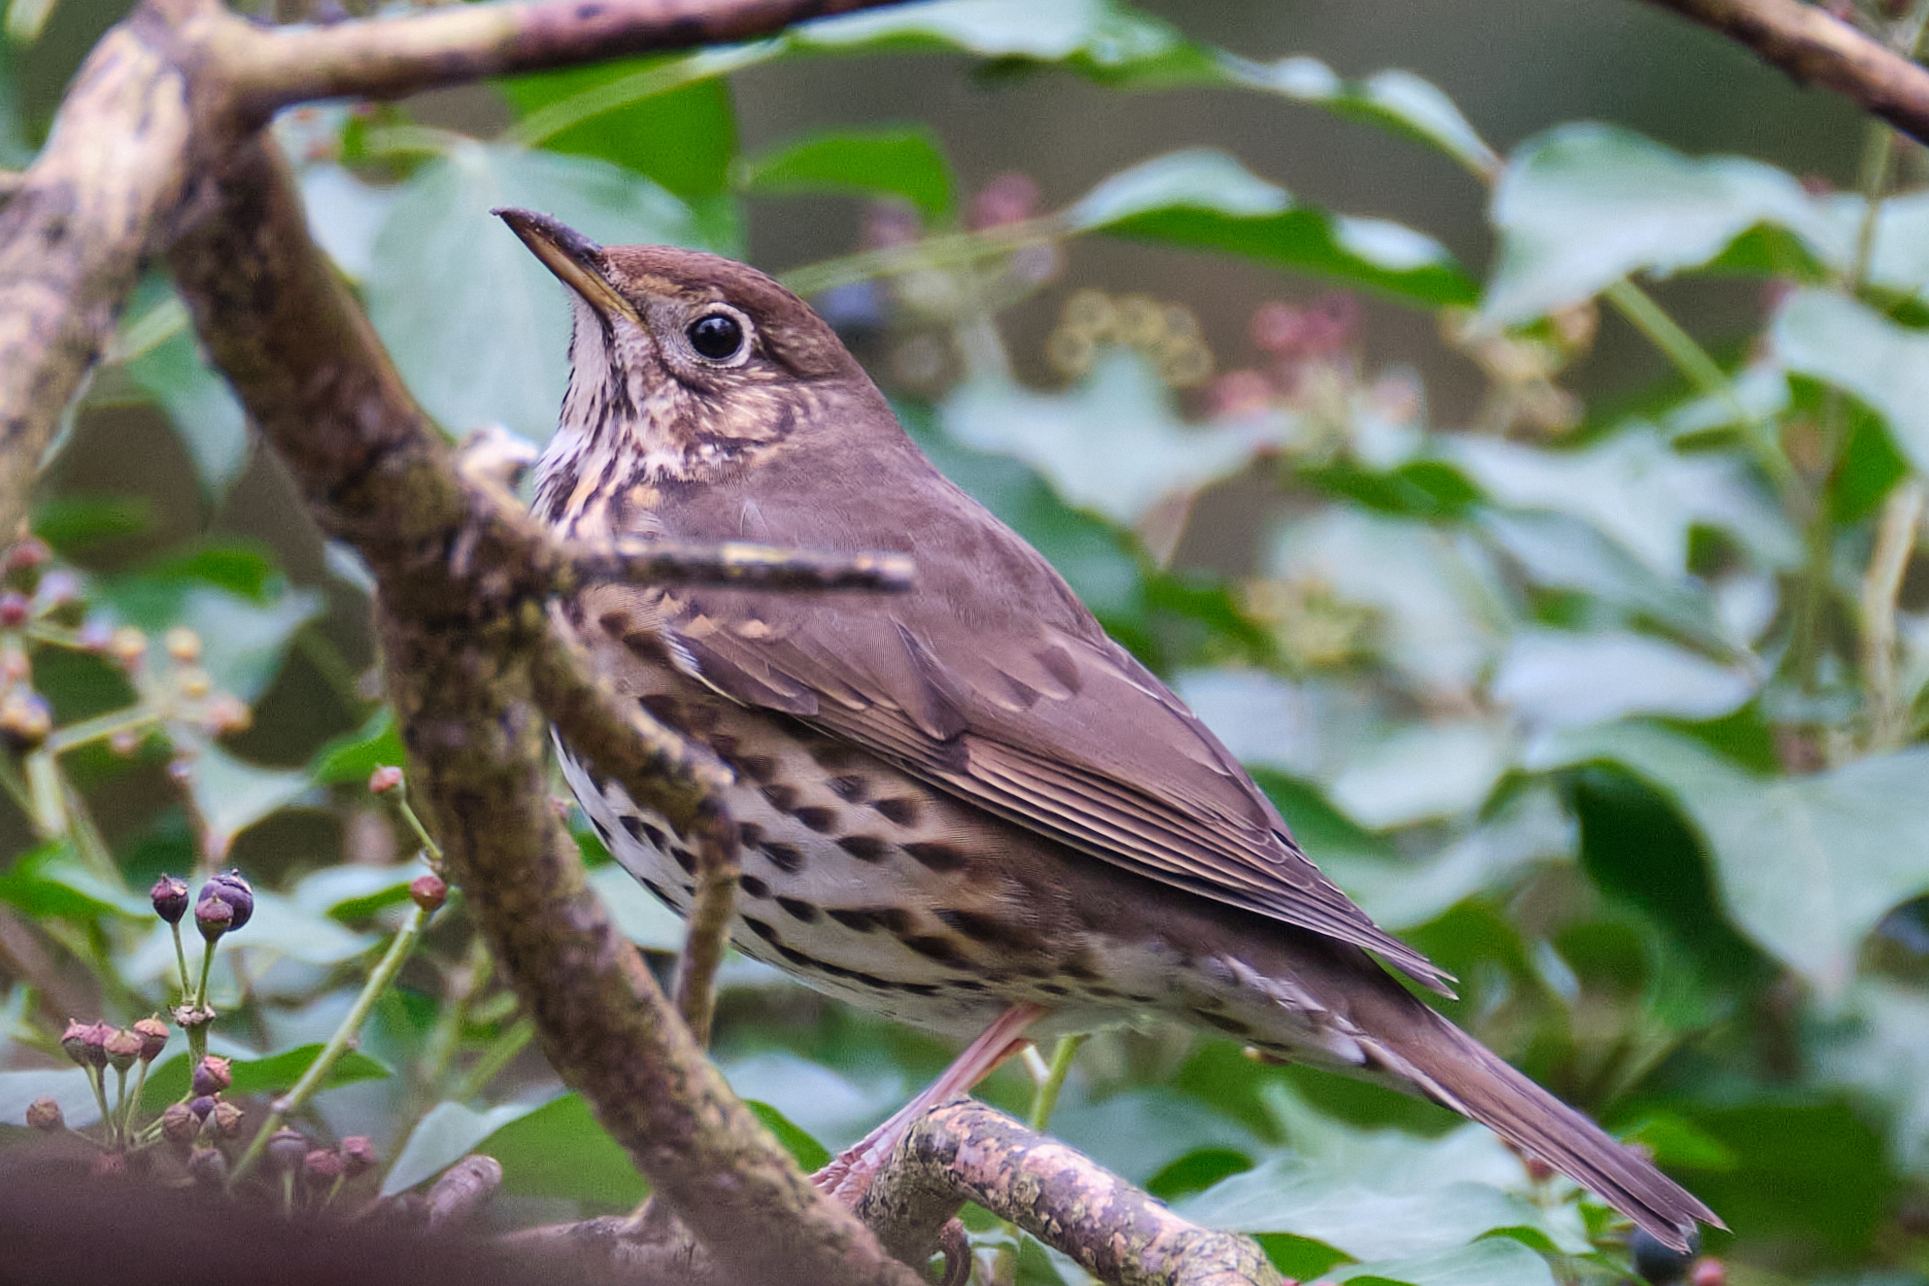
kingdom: Animalia
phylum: Chordata
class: Aves
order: Passeriformes
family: Turdidae
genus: Turdus
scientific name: Turdus philomelos
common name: Song thrush
